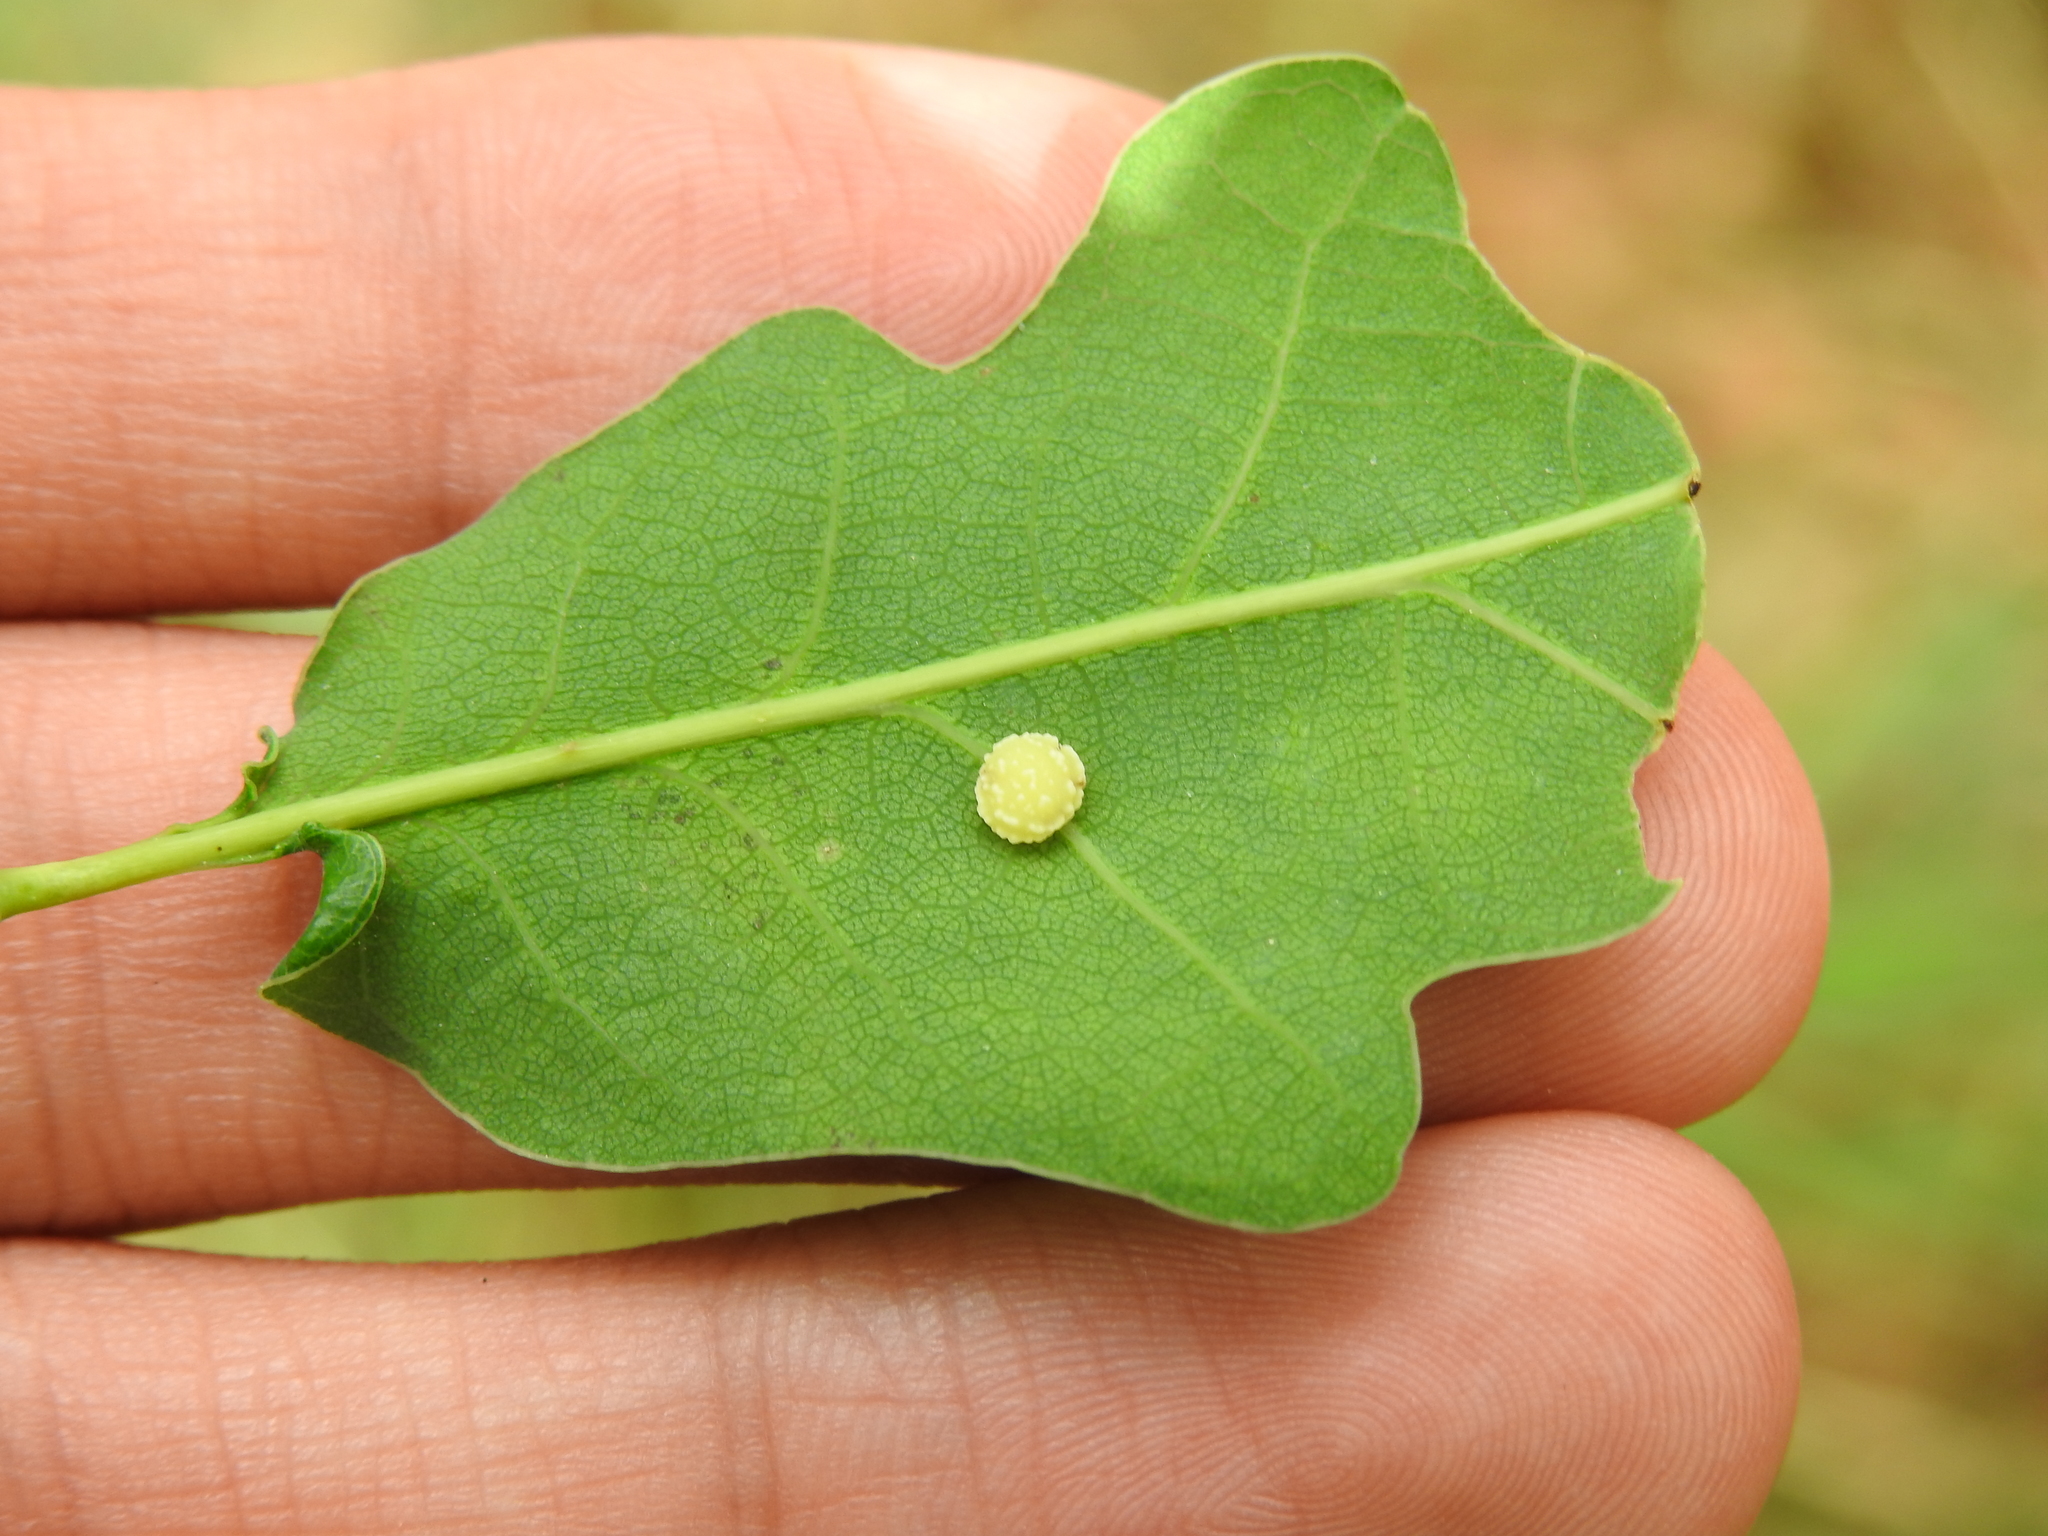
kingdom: Animalia
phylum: Arthropoda
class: Insecta
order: Hymenoptera
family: Cynipidae
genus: Cynips
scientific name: Cynips longiventris
